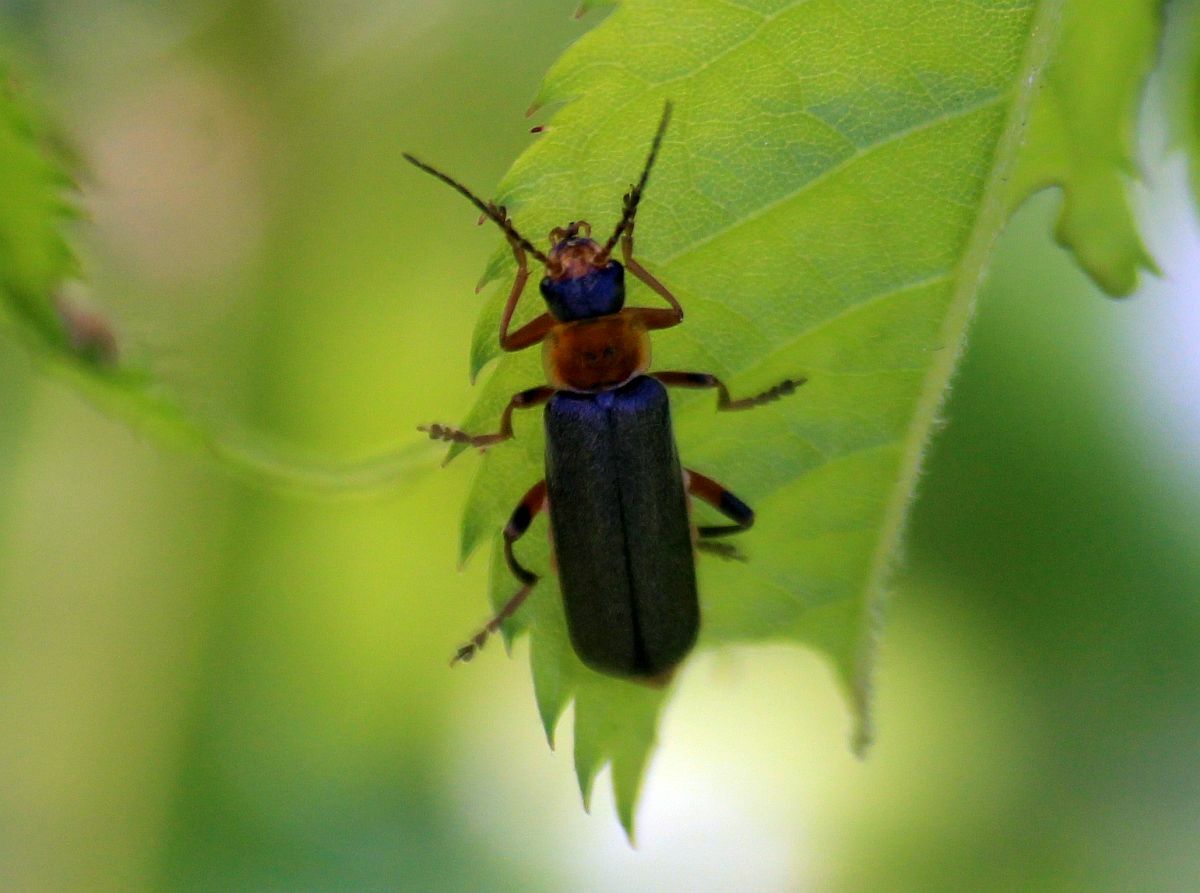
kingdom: Animalia
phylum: Arthropoda
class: Insecta
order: Coleoptera
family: Cantharidae
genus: Cantharis
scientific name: Cantharis nigricans
